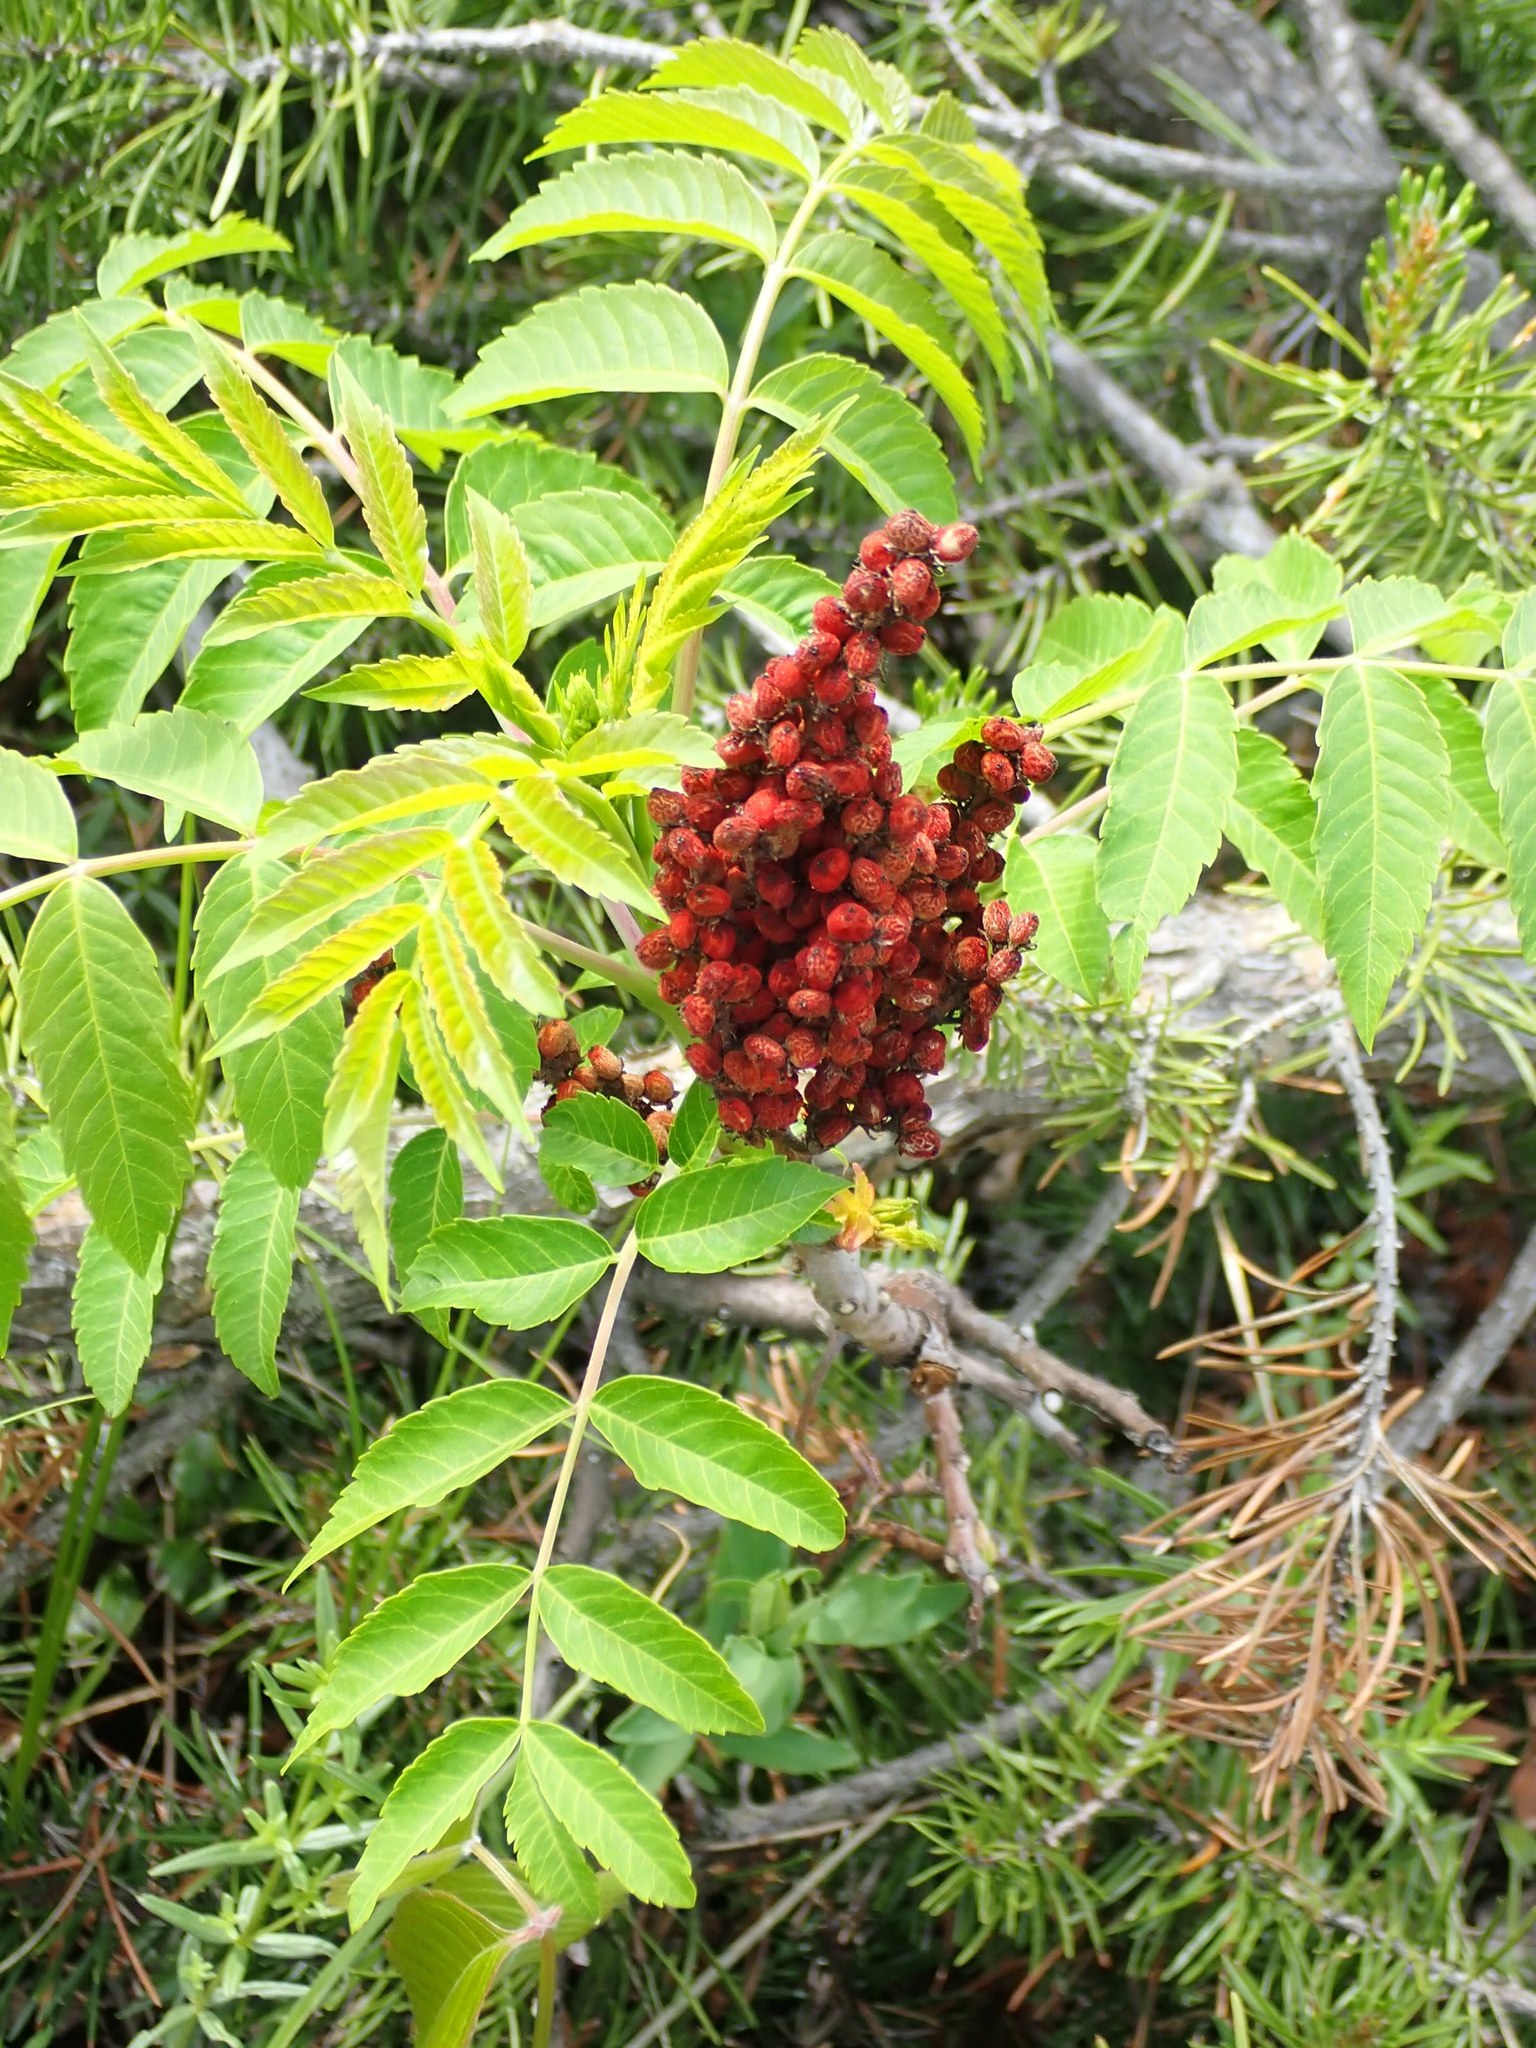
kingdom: Plantae
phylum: Tracheophyta
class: Magnoliopsida
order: Sapindales
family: Anacardiaceae
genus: Rhus
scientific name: Rhus glabra
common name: Scarlet sumac
